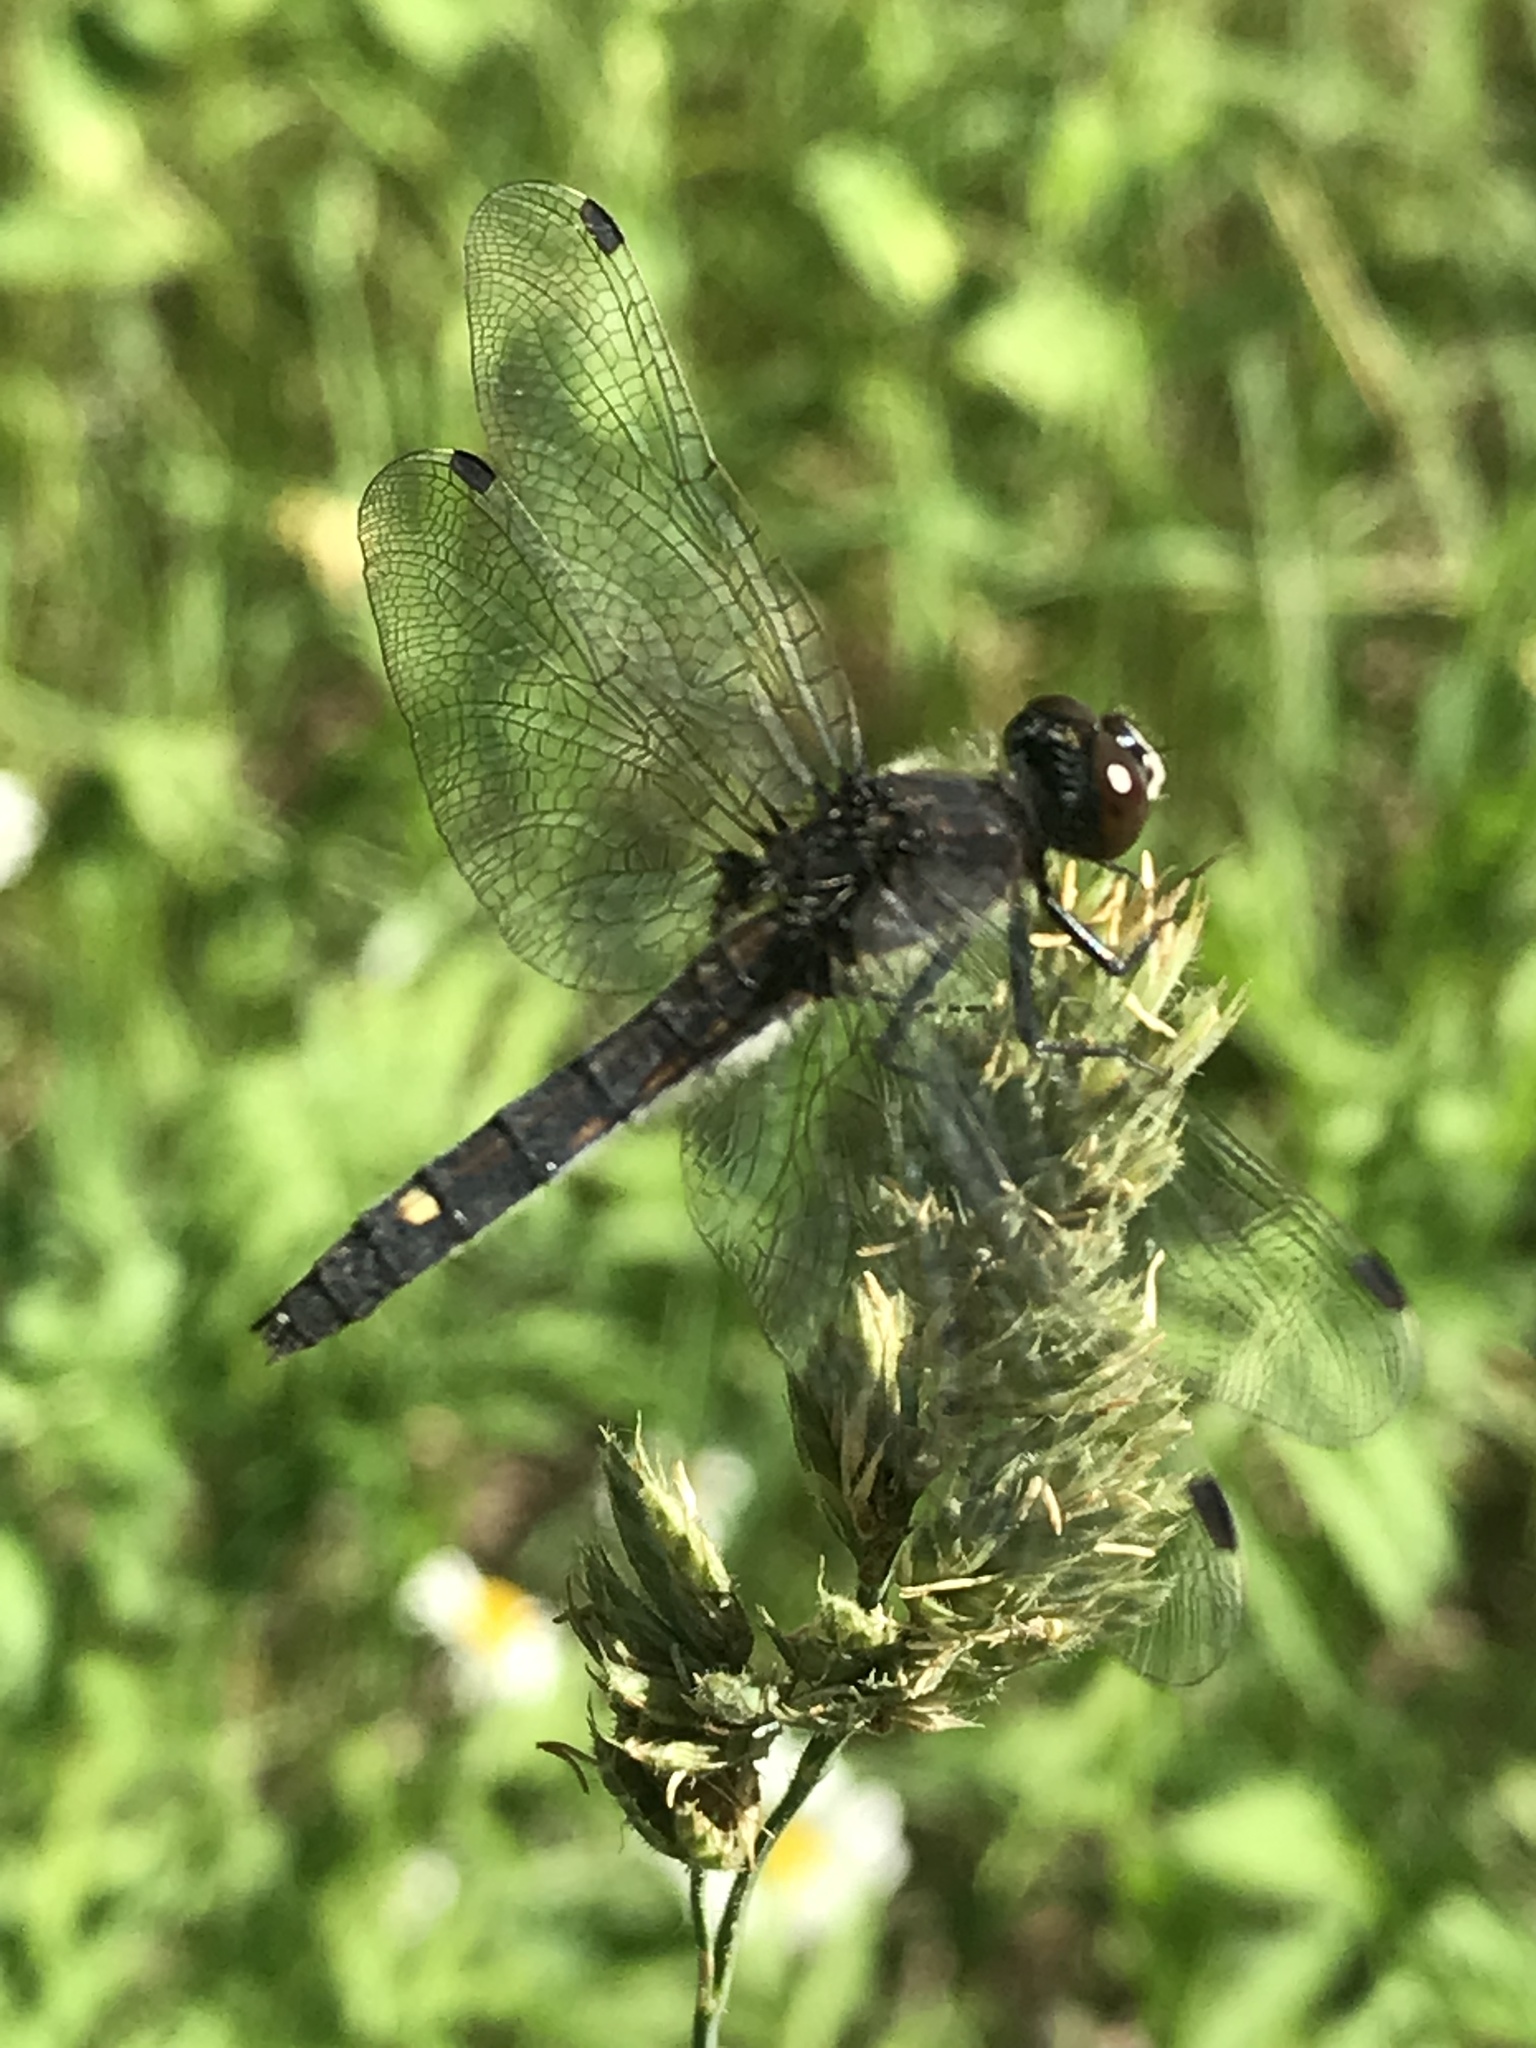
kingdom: Animalia
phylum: Arthropoda
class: Insecta
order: Odonata
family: Libellulidae
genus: Leucorrhinia
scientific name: Leucorrhinia intacta
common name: Dot-tailed whiteface
